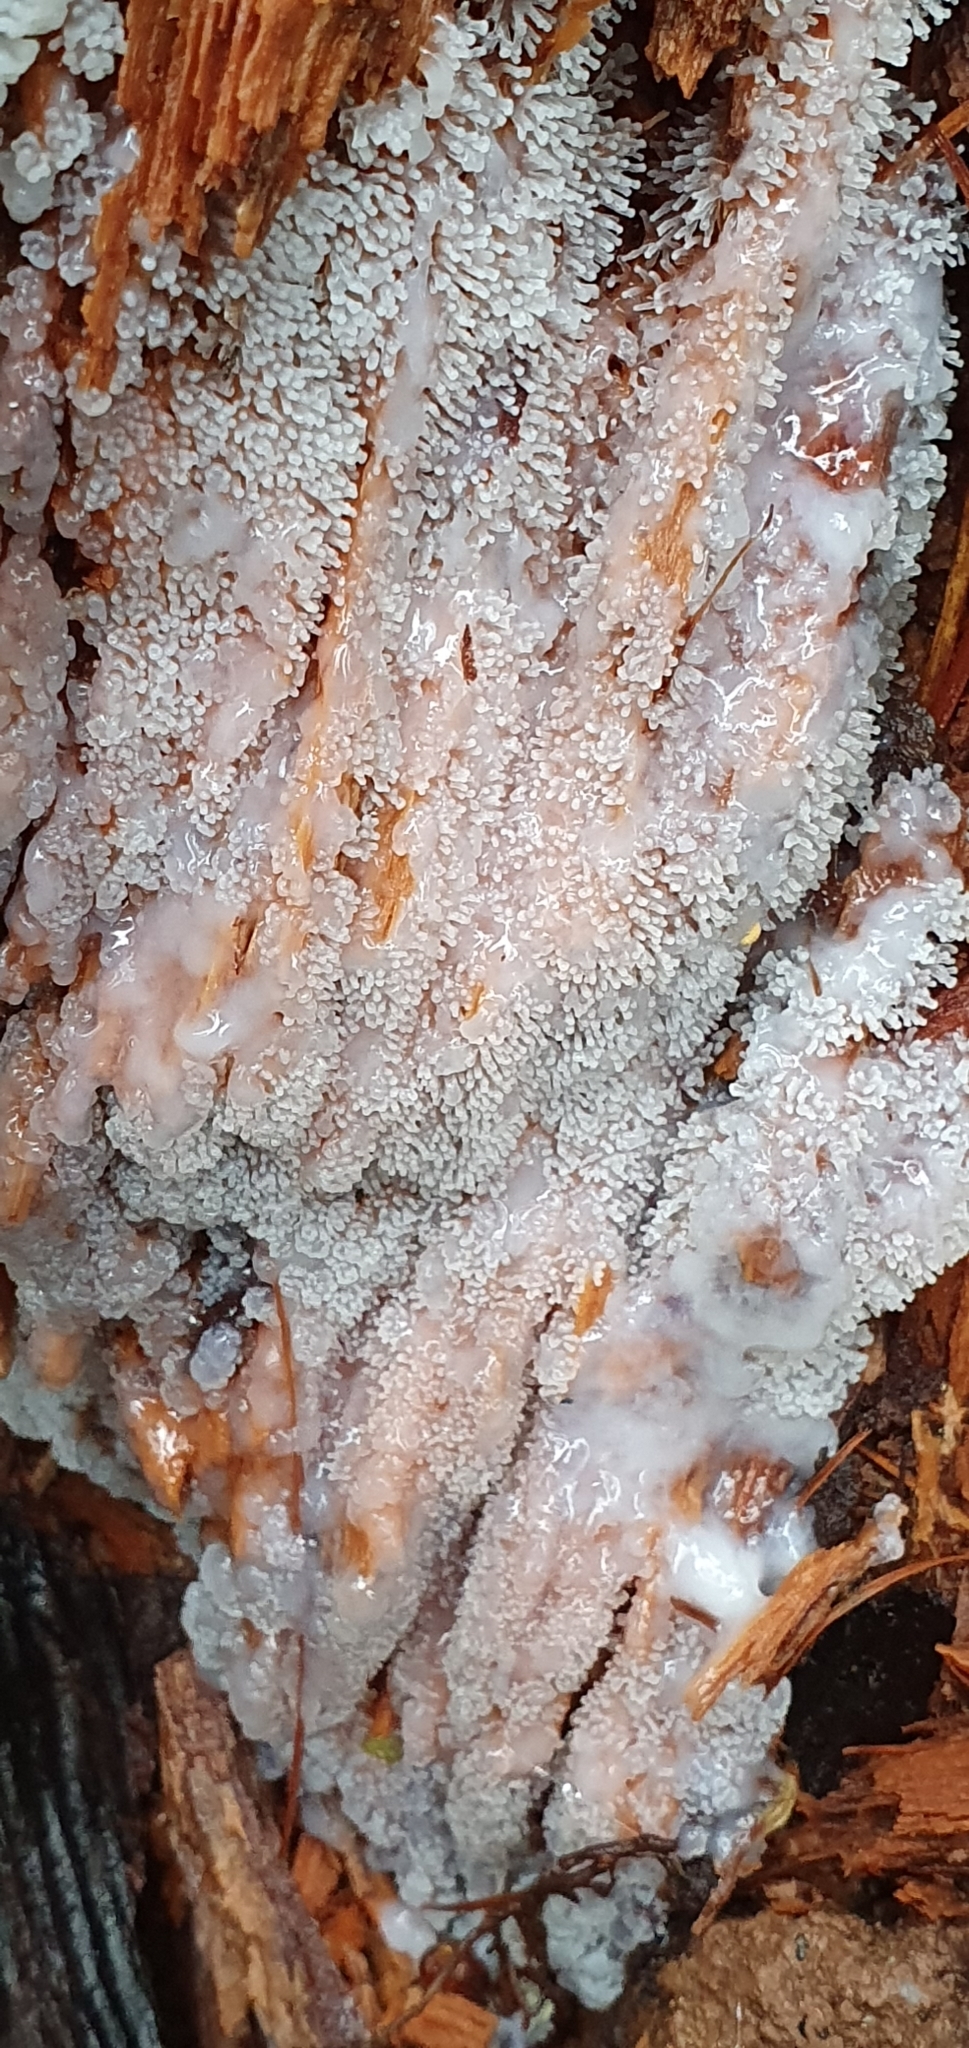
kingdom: Protozoa
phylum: Mycetozoa
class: Protosteliomycetes
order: Ceratiomyxales
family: Ceratiomyxaceae
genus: Ceratiomyxa
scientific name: Ceratiomyxa fruticulosa
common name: Honeycomb coral slime mold
